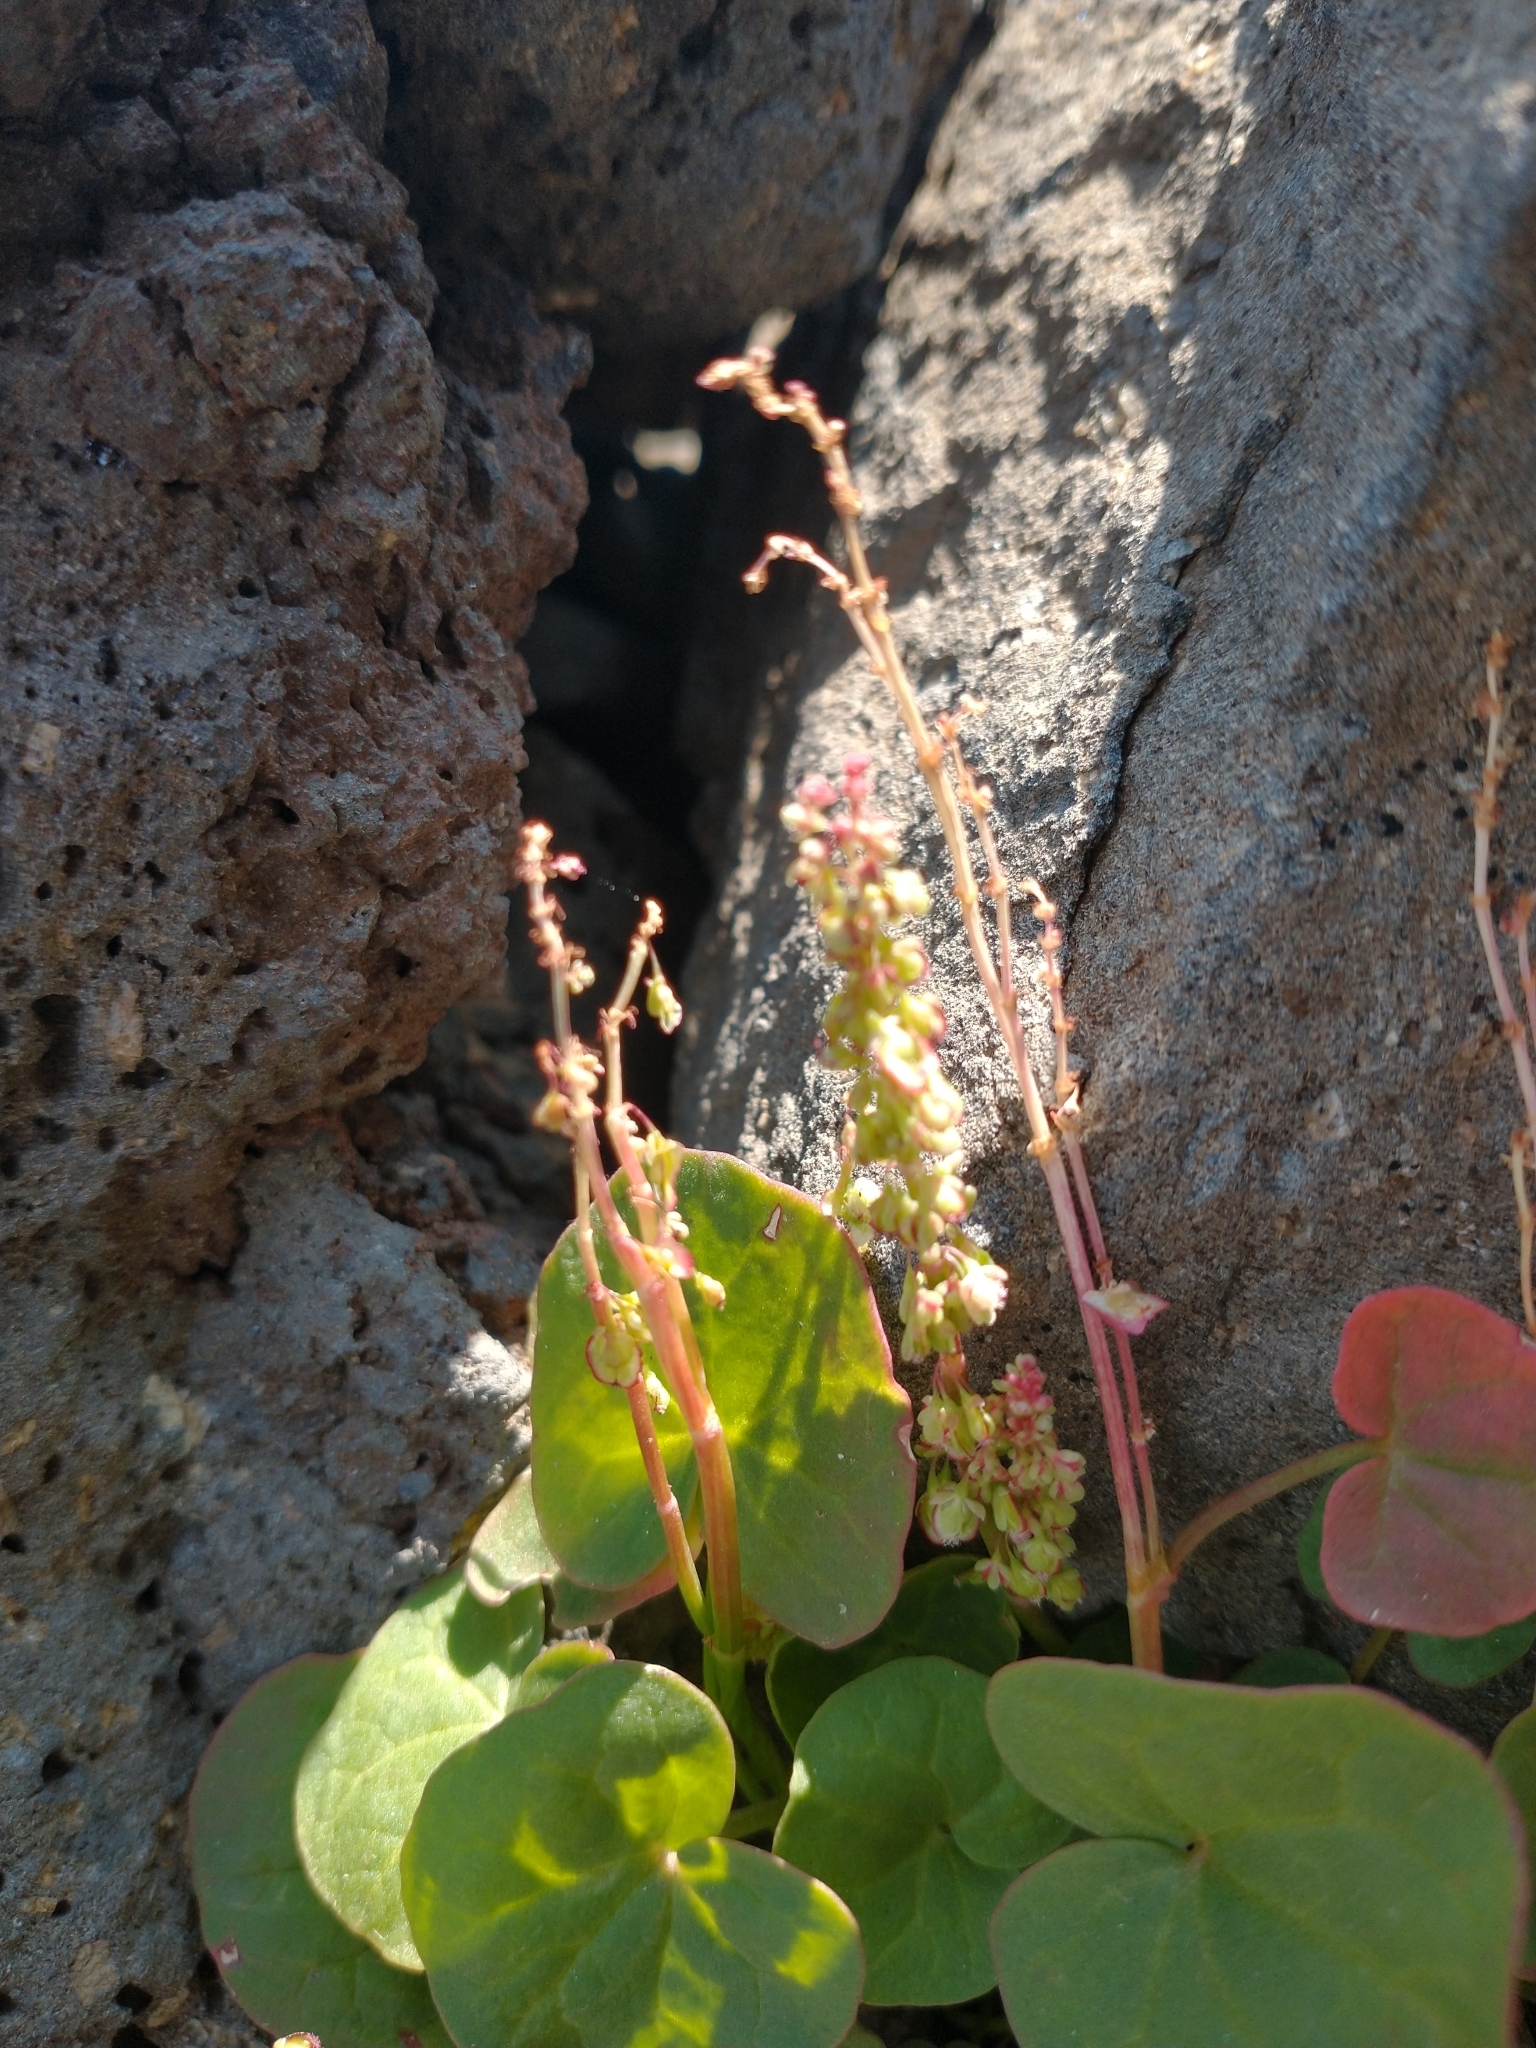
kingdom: Plantae
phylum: Tracheophyta
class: Magnoliopsida
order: Caryophyllales
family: Polygonaceae
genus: Oxyria
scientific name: Oxyria digyna
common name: Alpine mountain-sorrel
